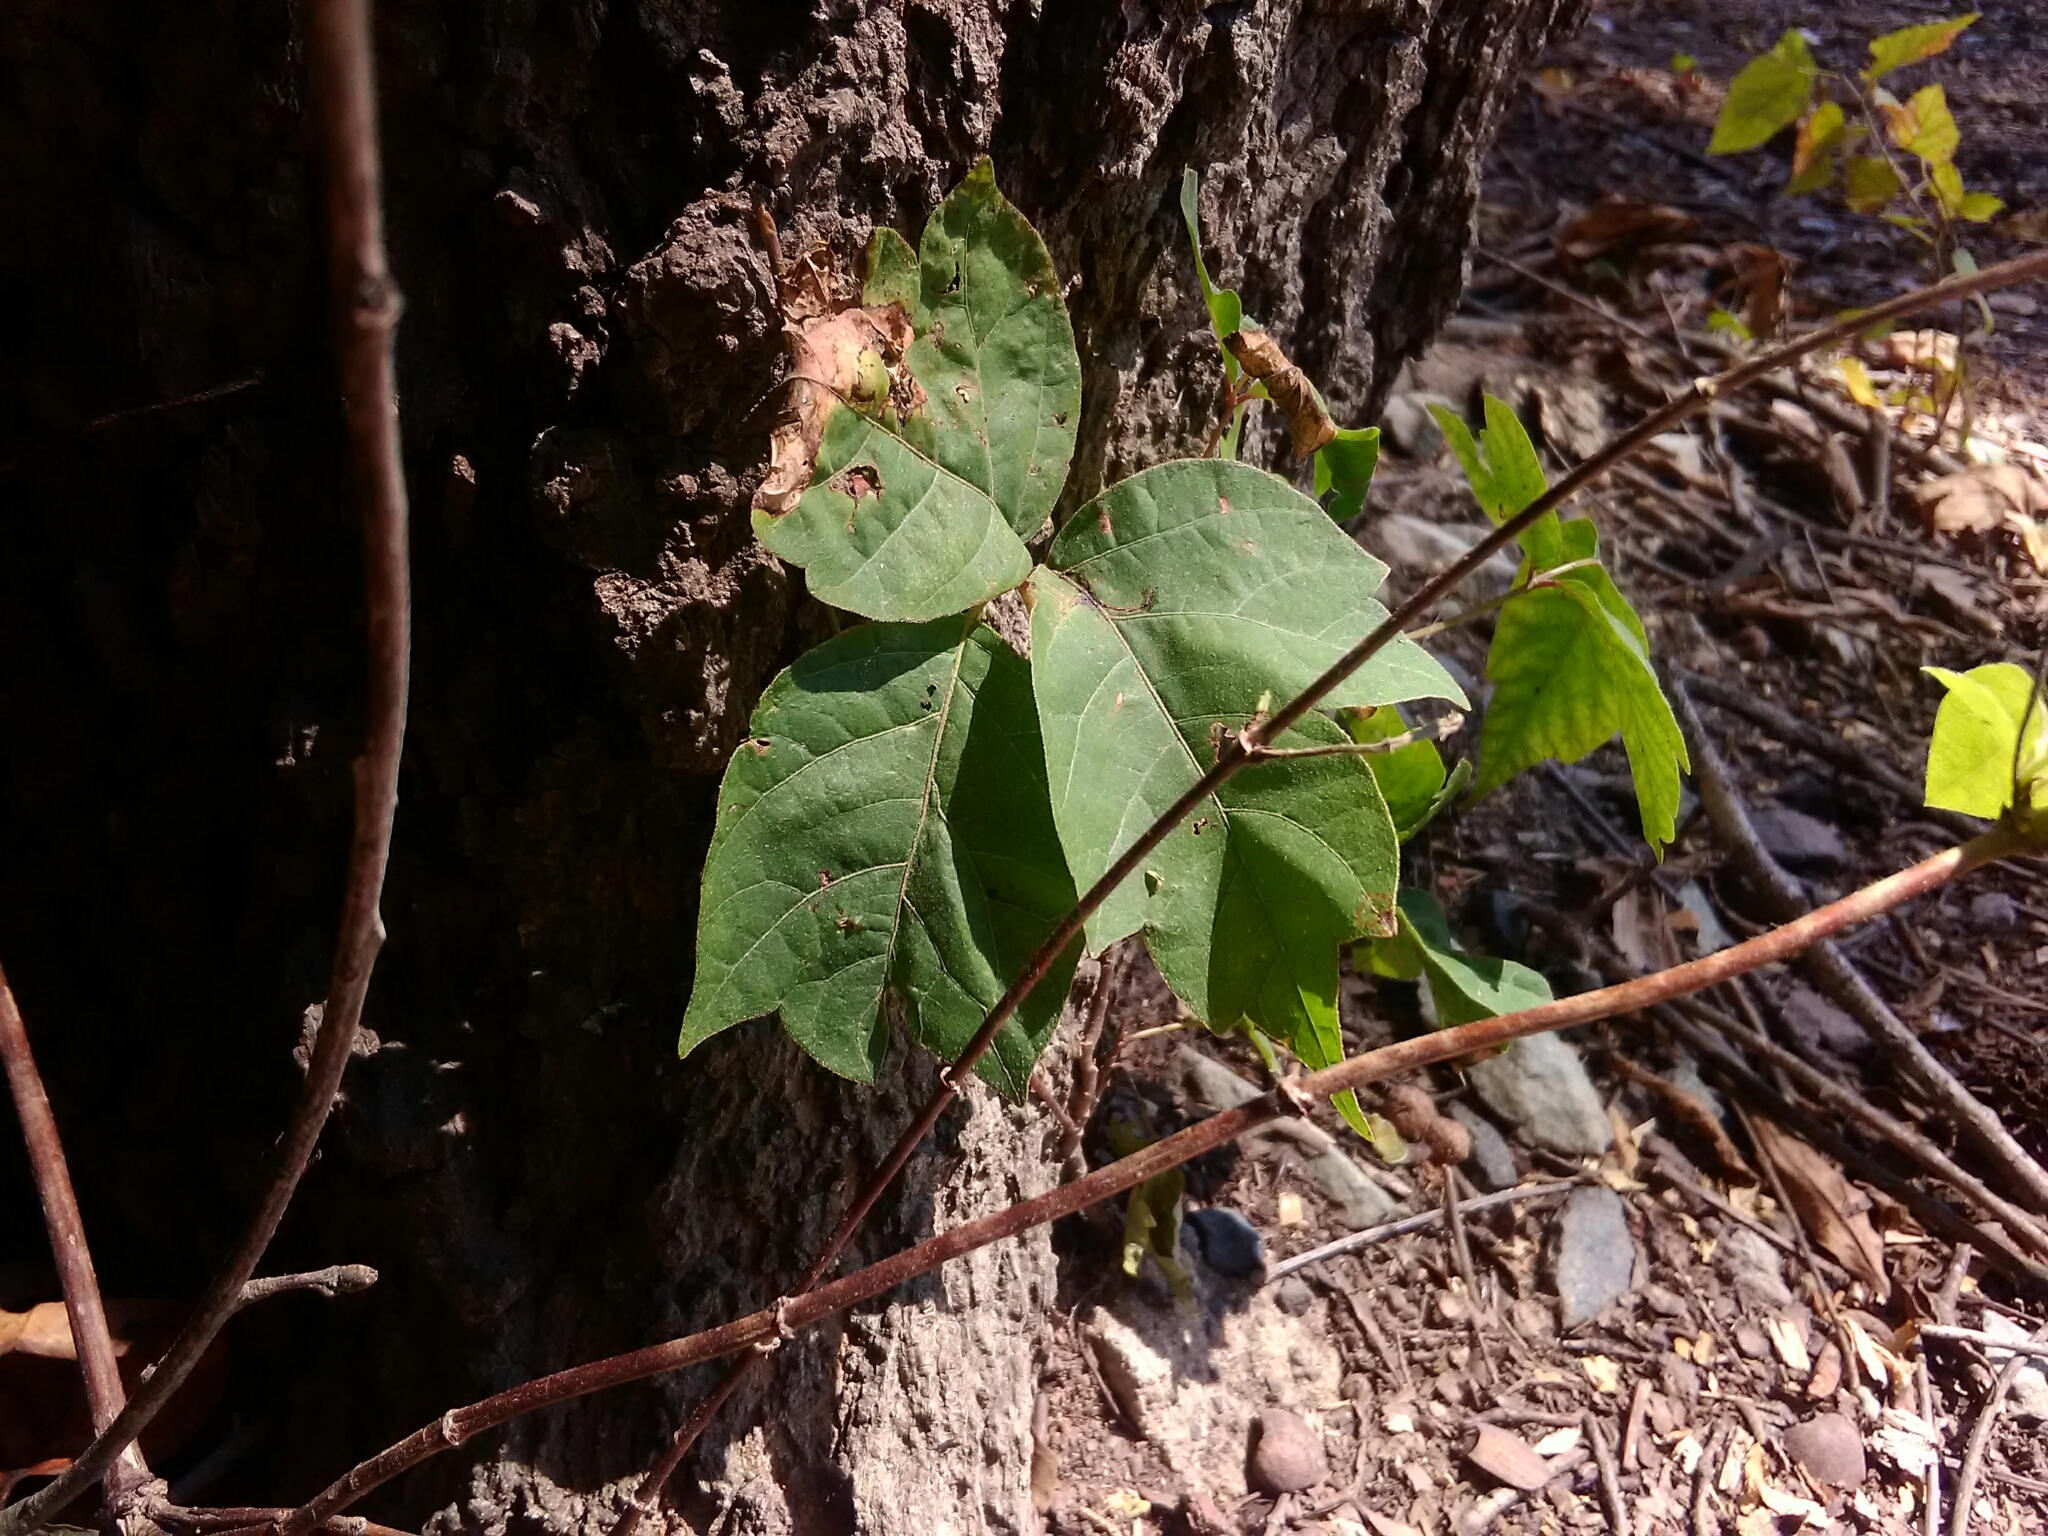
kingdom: Plantae
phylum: Tracheophyta
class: Magnoliopsida
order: Sapindales
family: Anacardiaceae
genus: Toxicodendron
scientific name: Toxicodendron radicans
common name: Poison ivy
